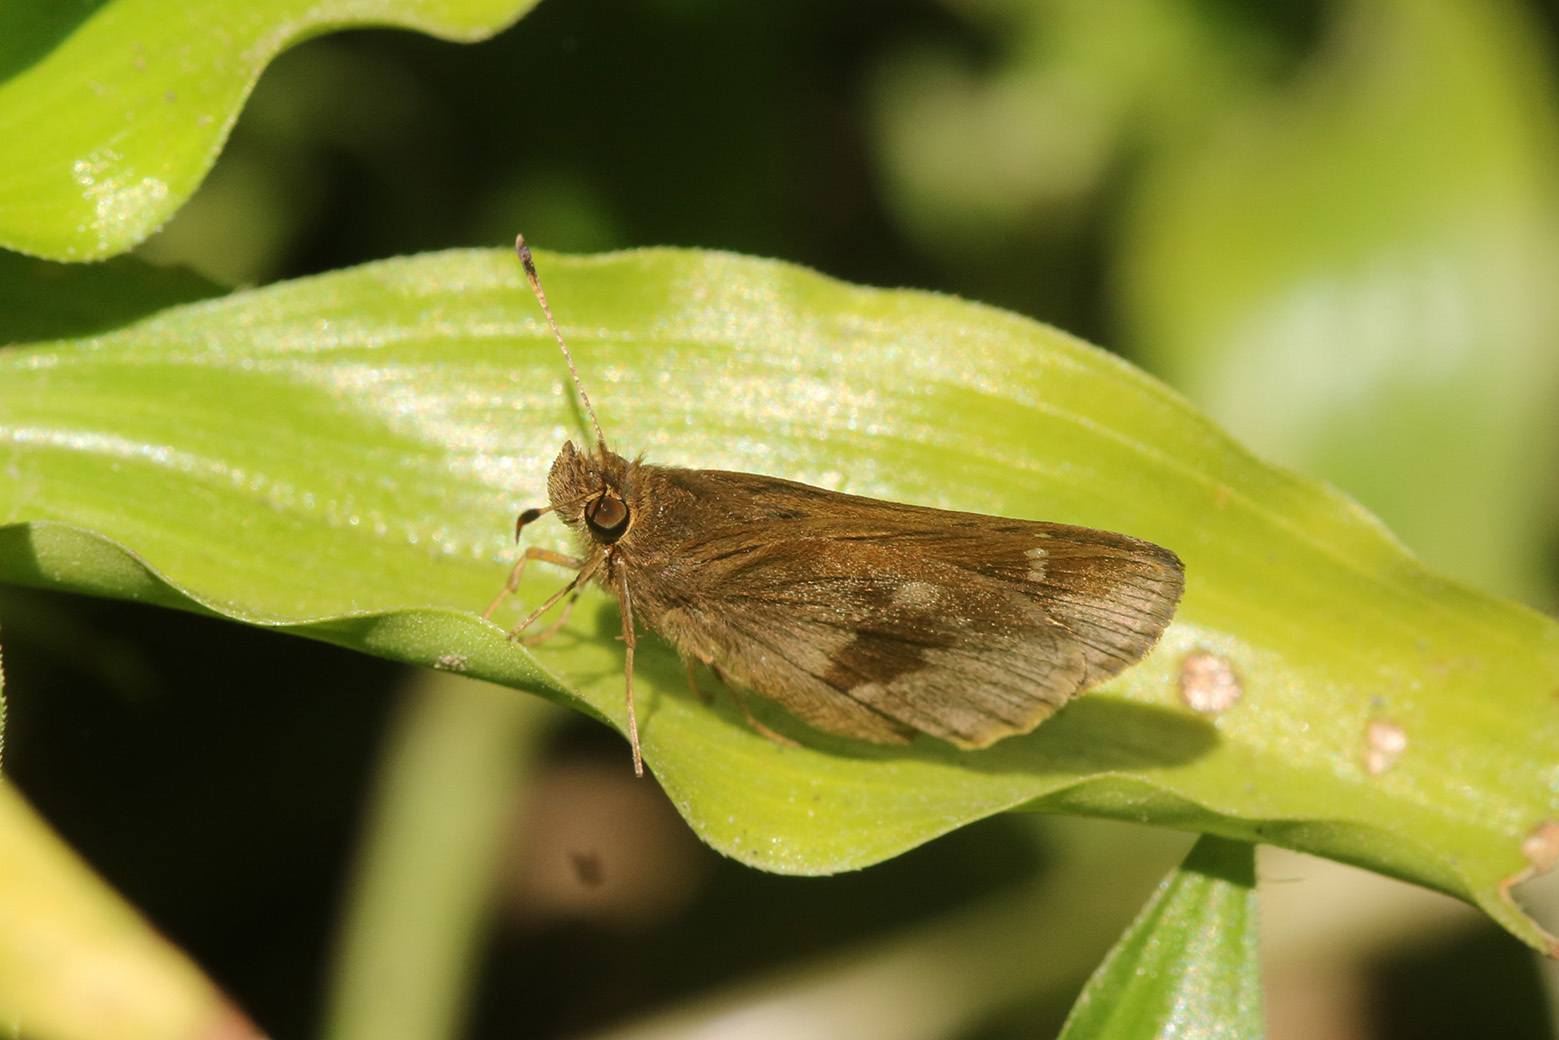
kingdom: Animalia
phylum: Arthropoda
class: Insecta
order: Lepidoptera
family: Hesperiidae
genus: Cymaenes
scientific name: Cymaenes
